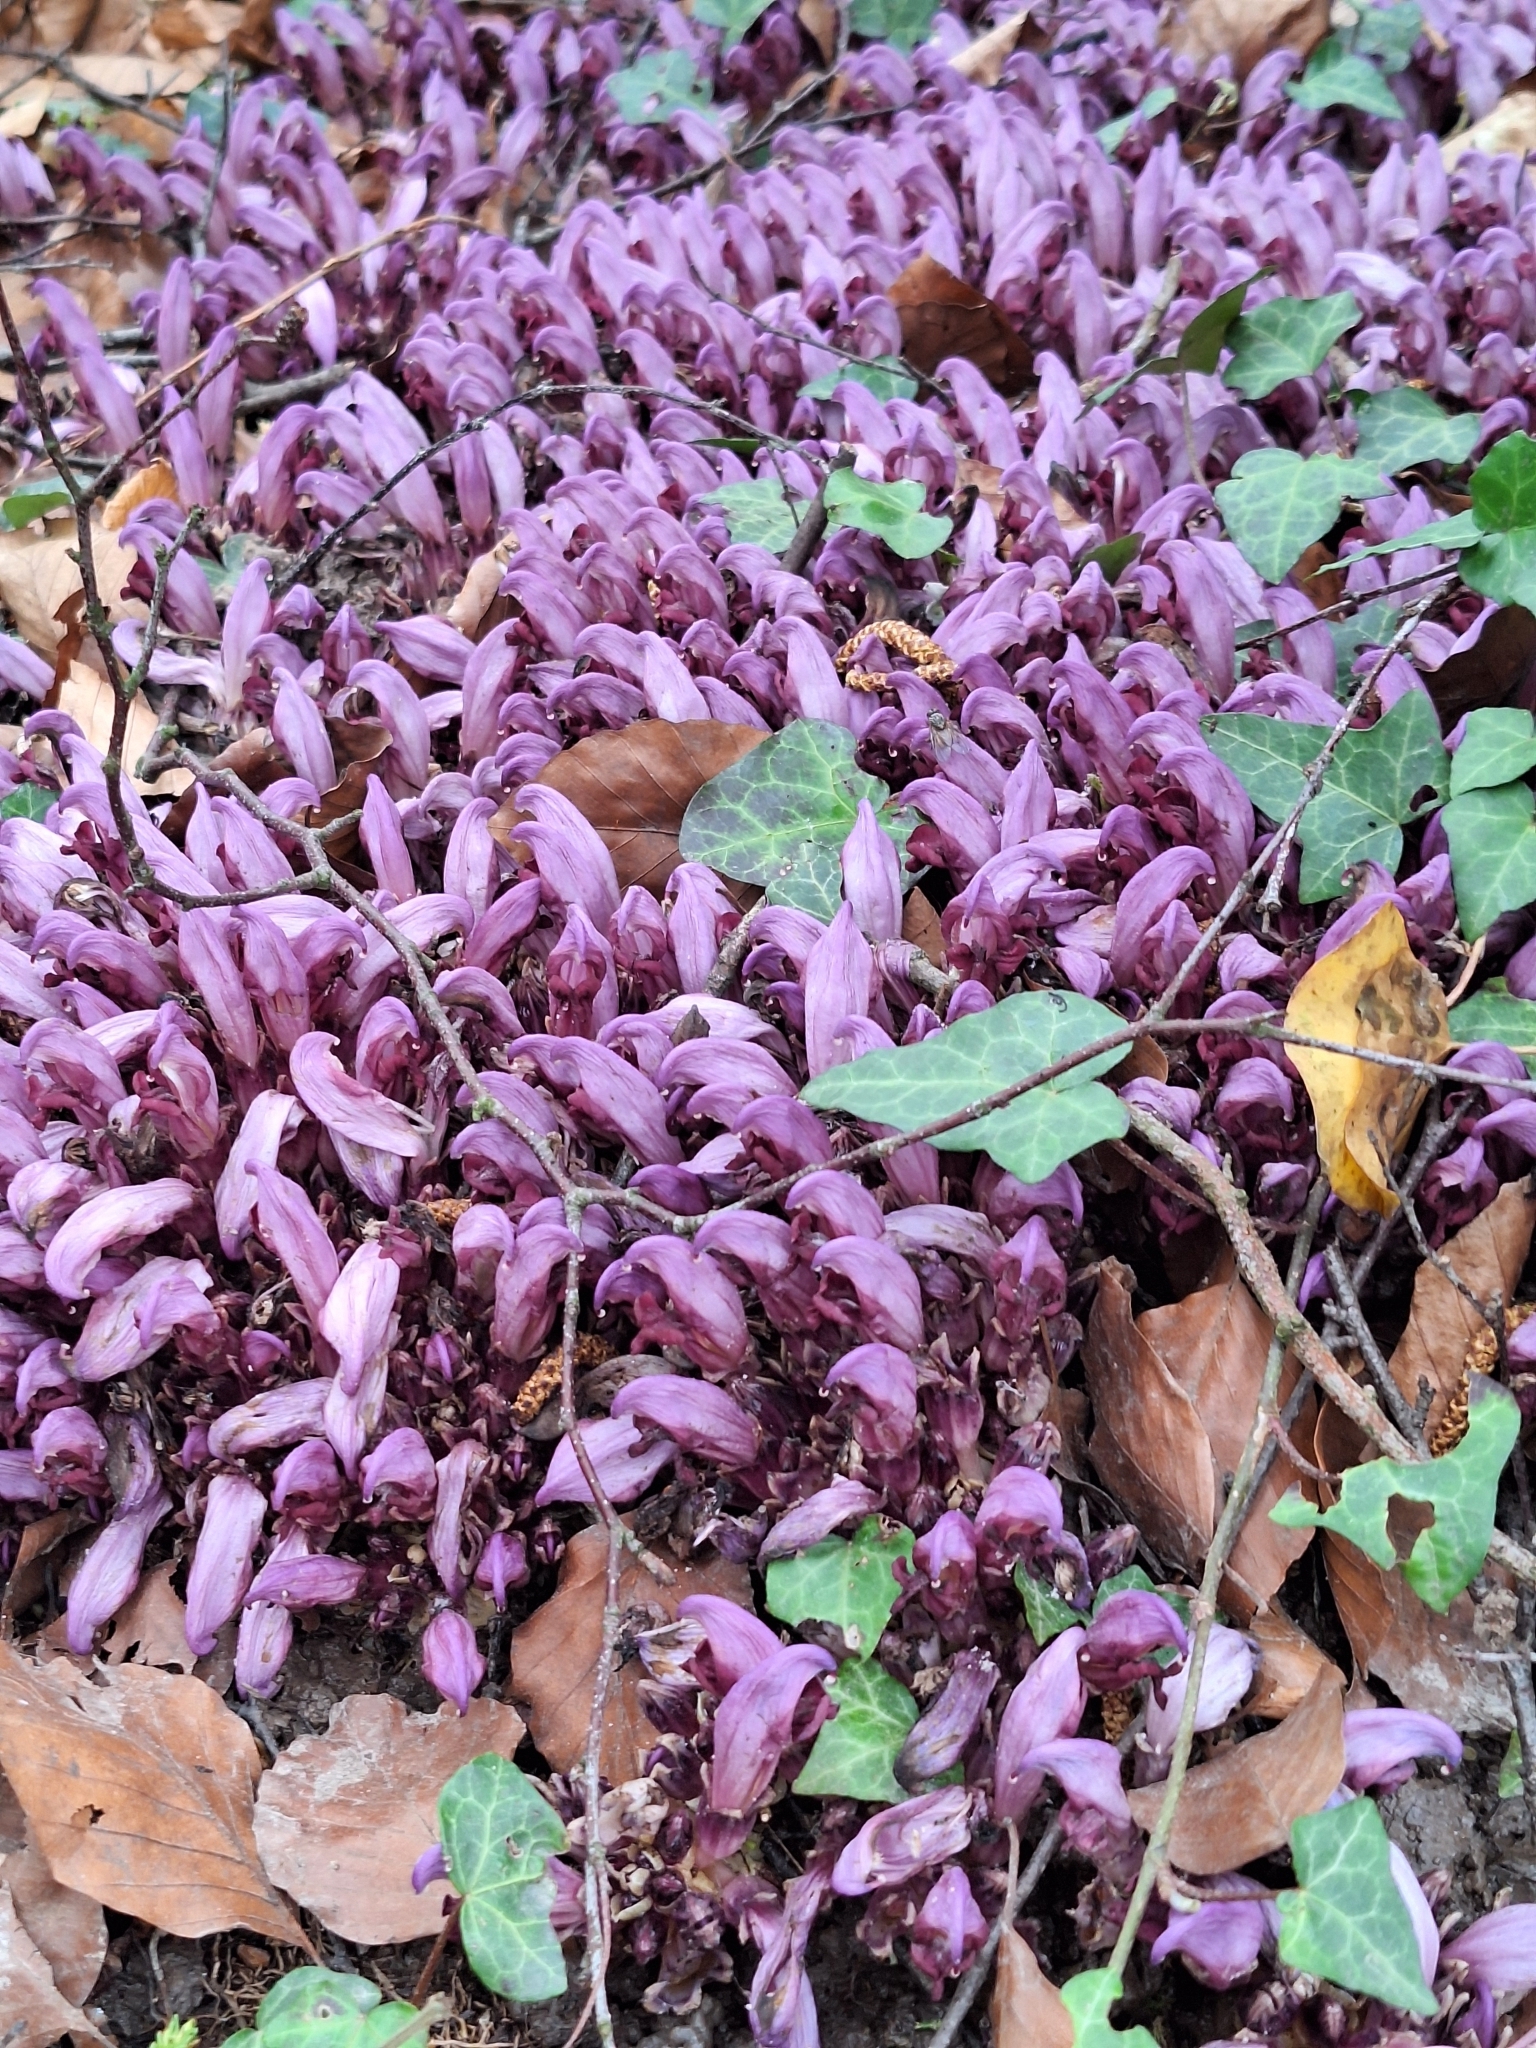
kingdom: Plantae
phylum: Tracheophyta
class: Magnoliopsida
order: Lamiales
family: Orobanchaceae
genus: Lathraea
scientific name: Lathraea clandestina
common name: Purple toothwort
